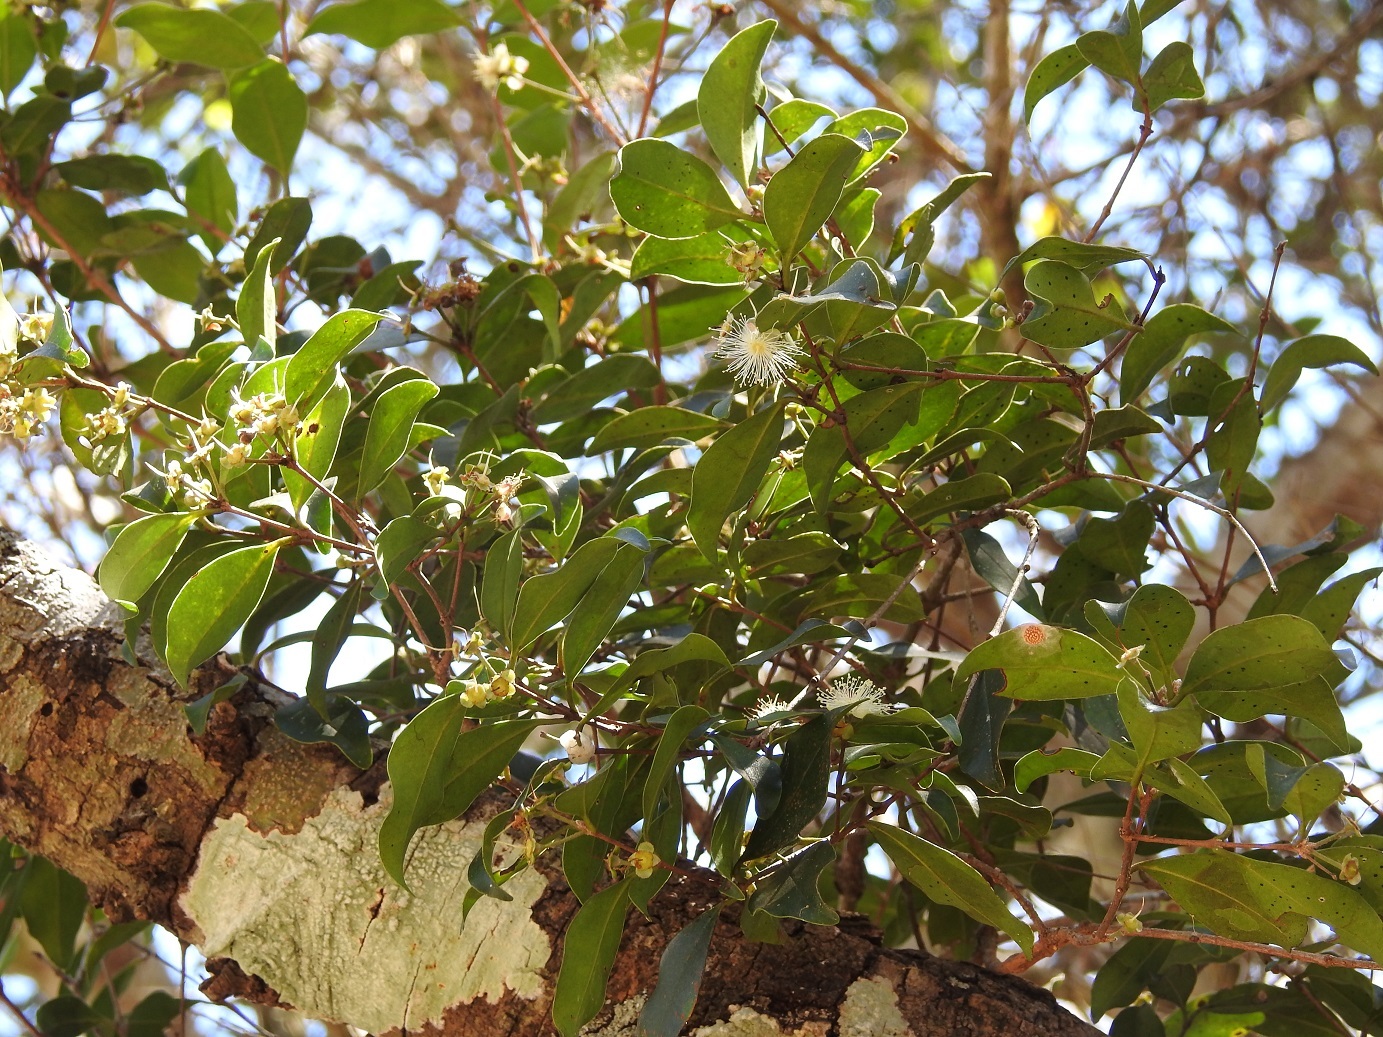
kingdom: Plantae
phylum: Tracheophyta
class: Magnoliopsida
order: Myrtales
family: Myrtaceae
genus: Eugenia
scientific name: Eugenia acapulcensis
